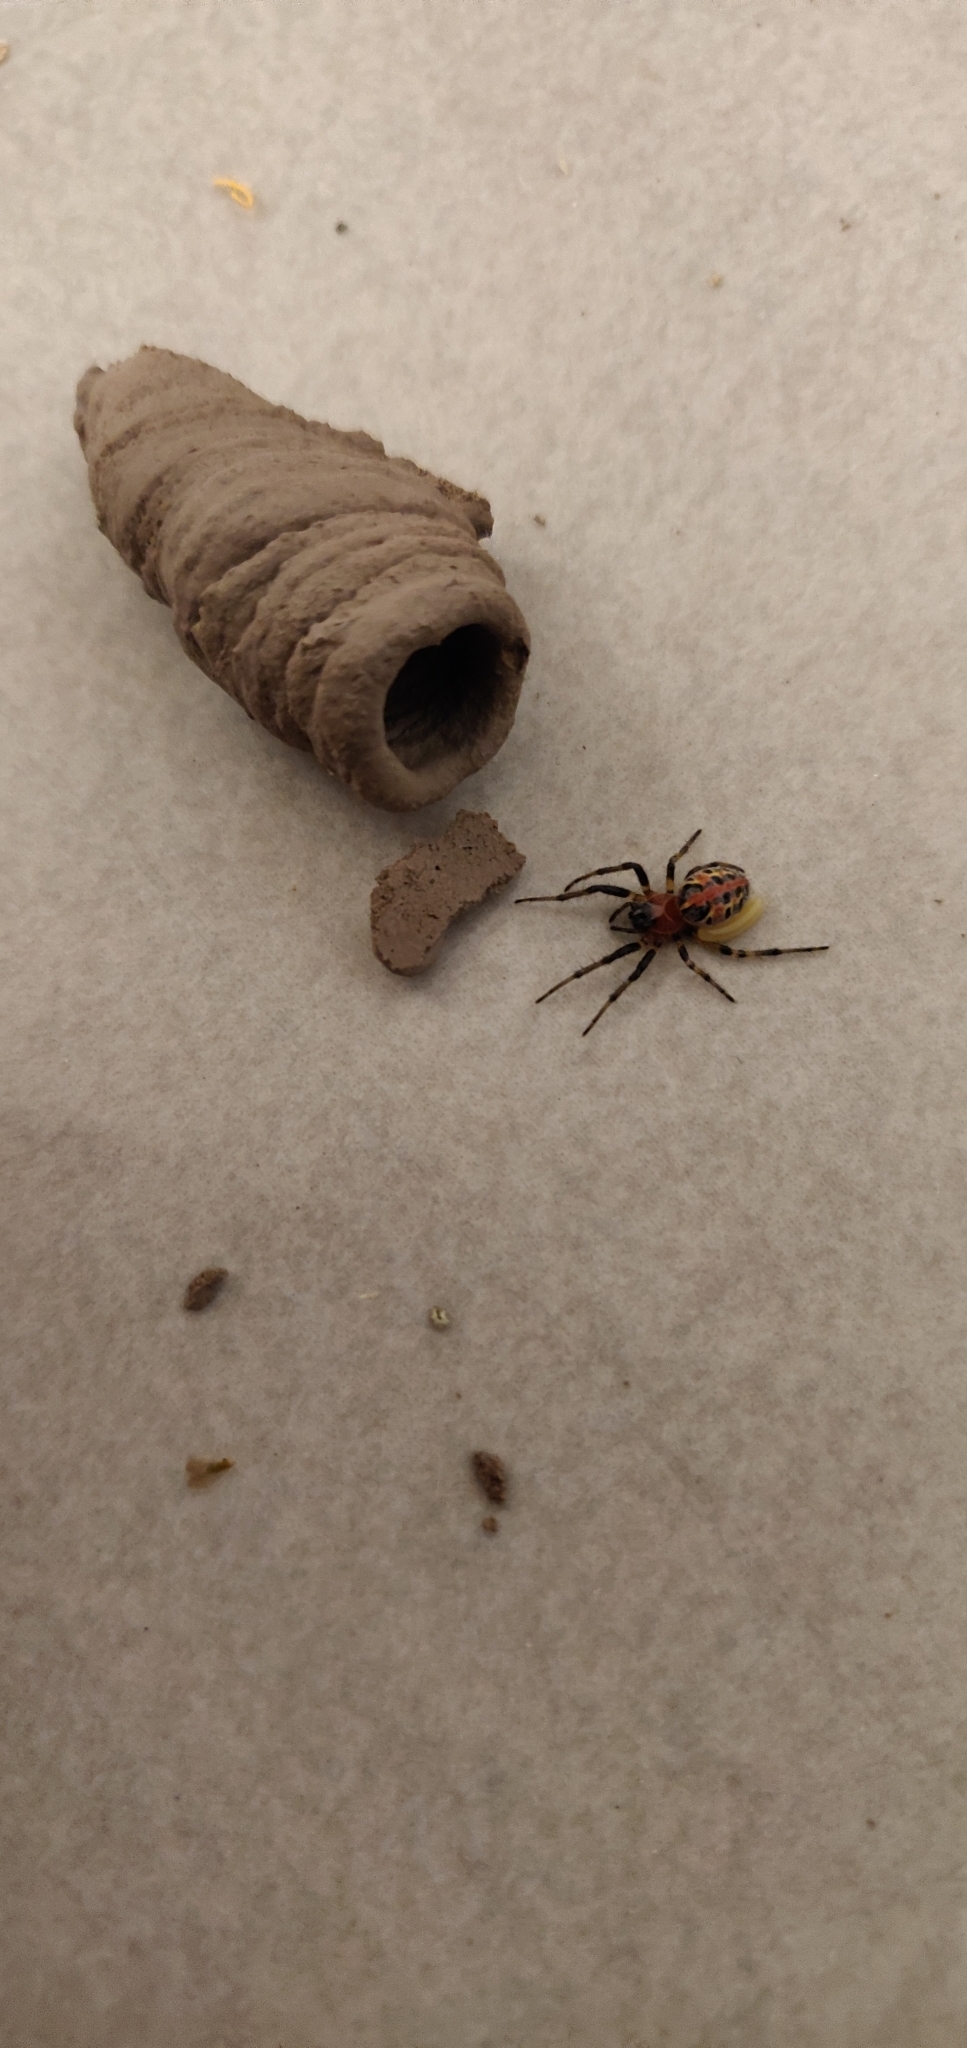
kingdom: Animalia
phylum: Arthropoda
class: Arachnida
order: Araneae
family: Araneidae
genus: Alpaida
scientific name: Alpaida versicolor
